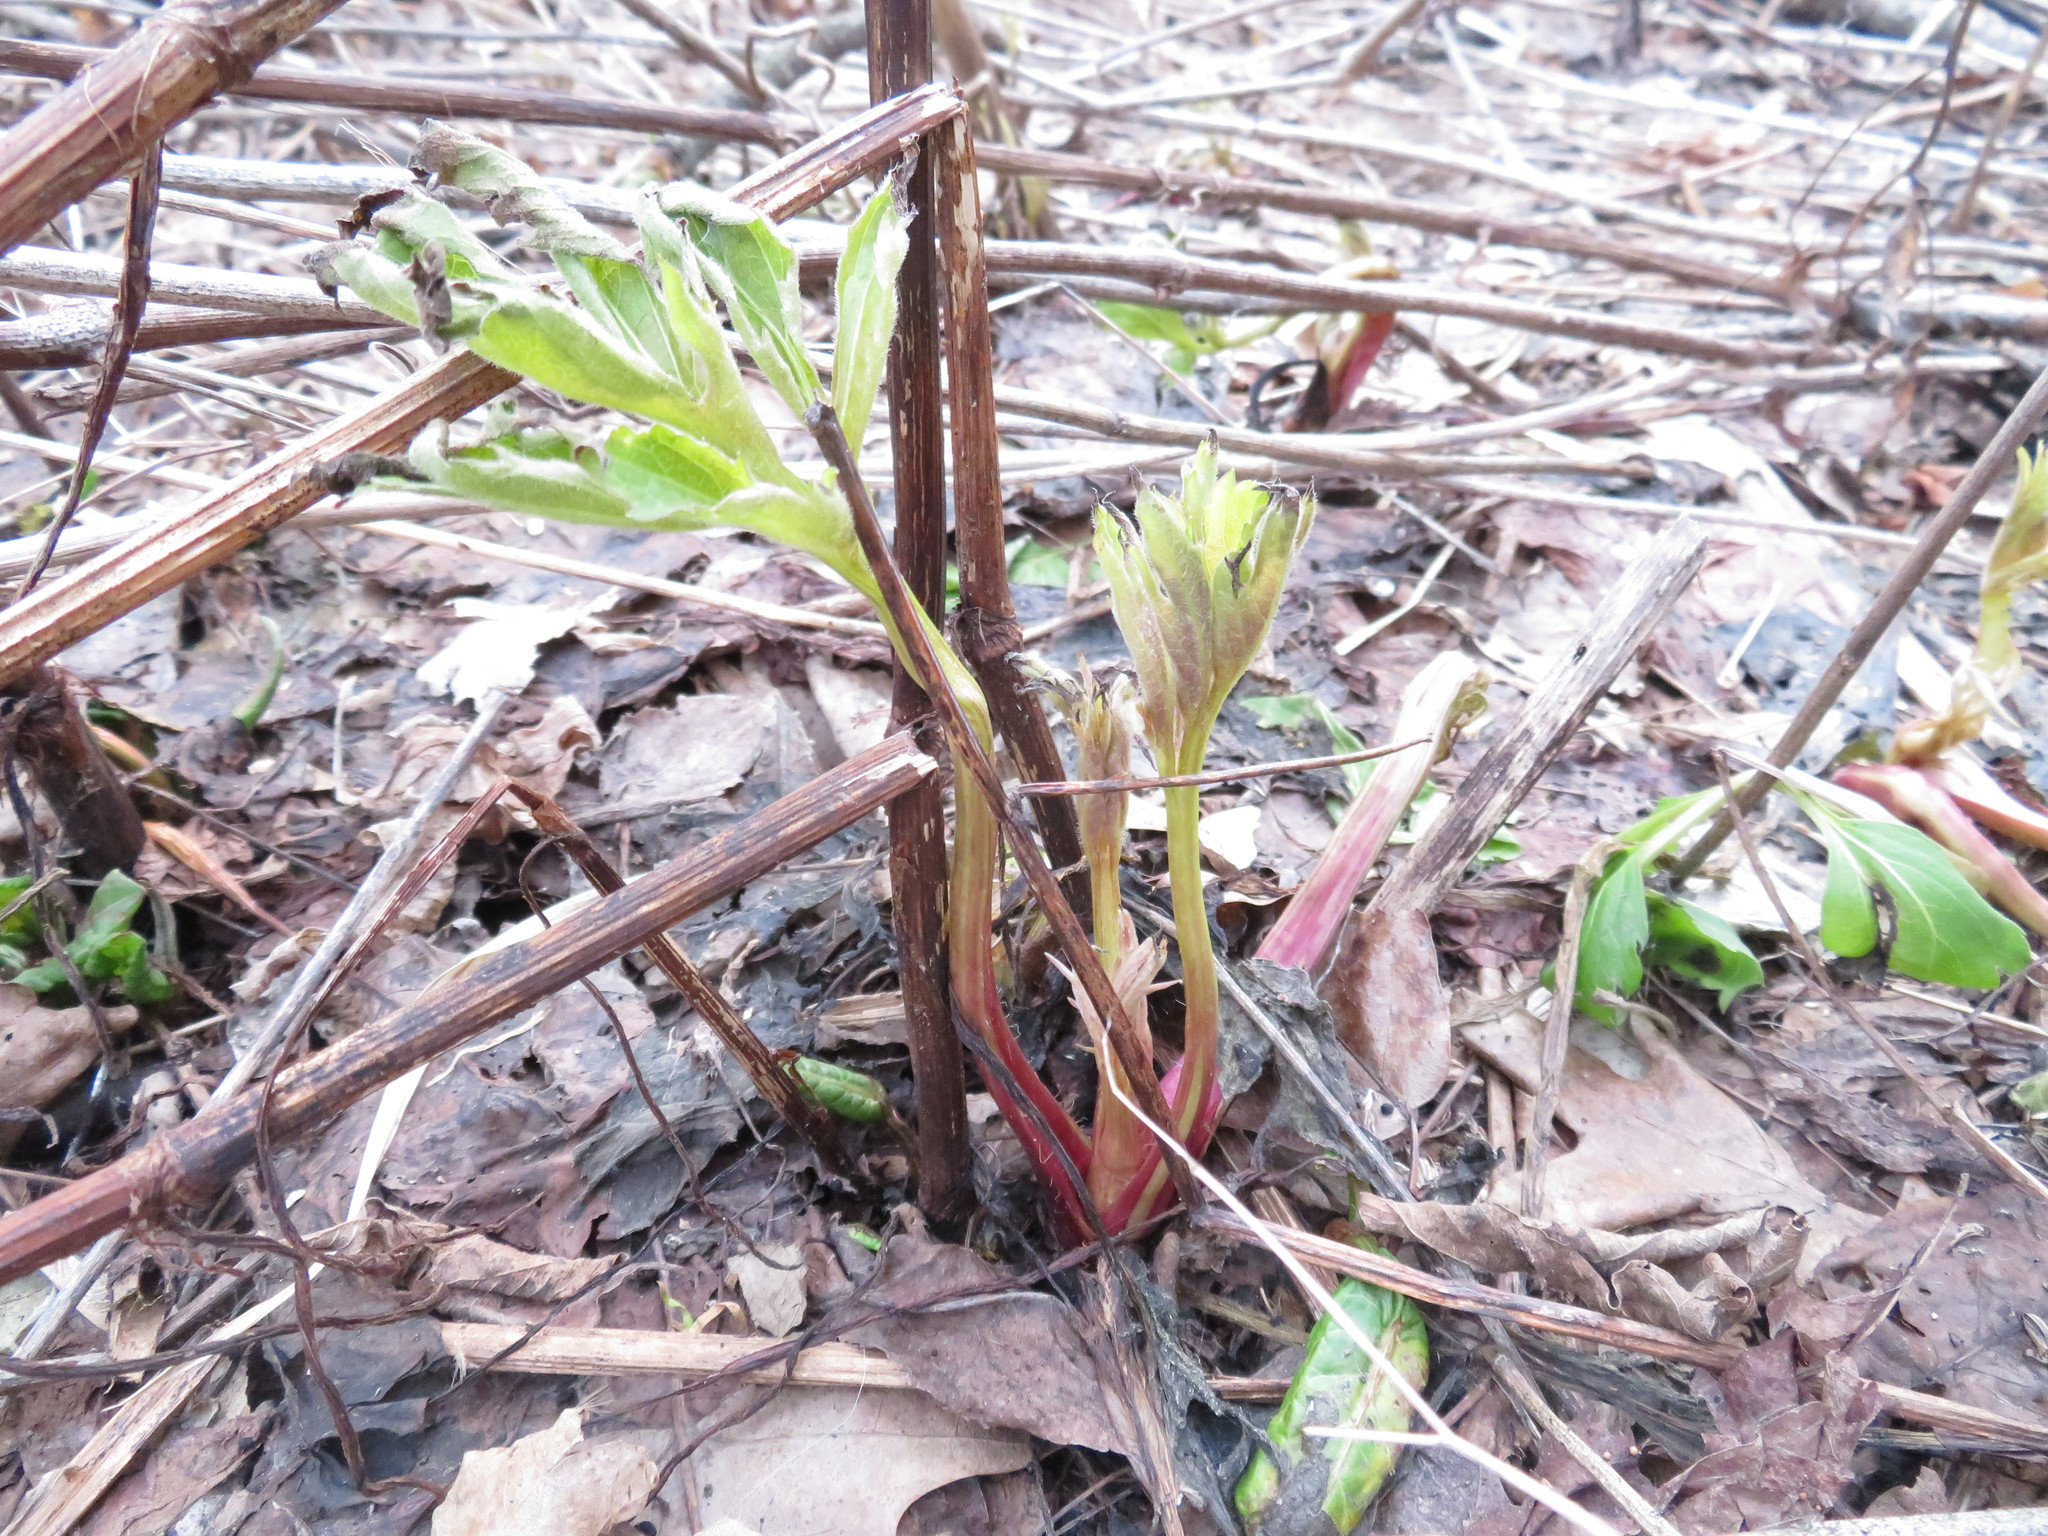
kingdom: Plantae
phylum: Tracheophyta
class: Magnoliopsida
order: Asterales
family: Asteraceae
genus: Rudbeckia
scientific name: Rudbeckia laciniata
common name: Coneflower
